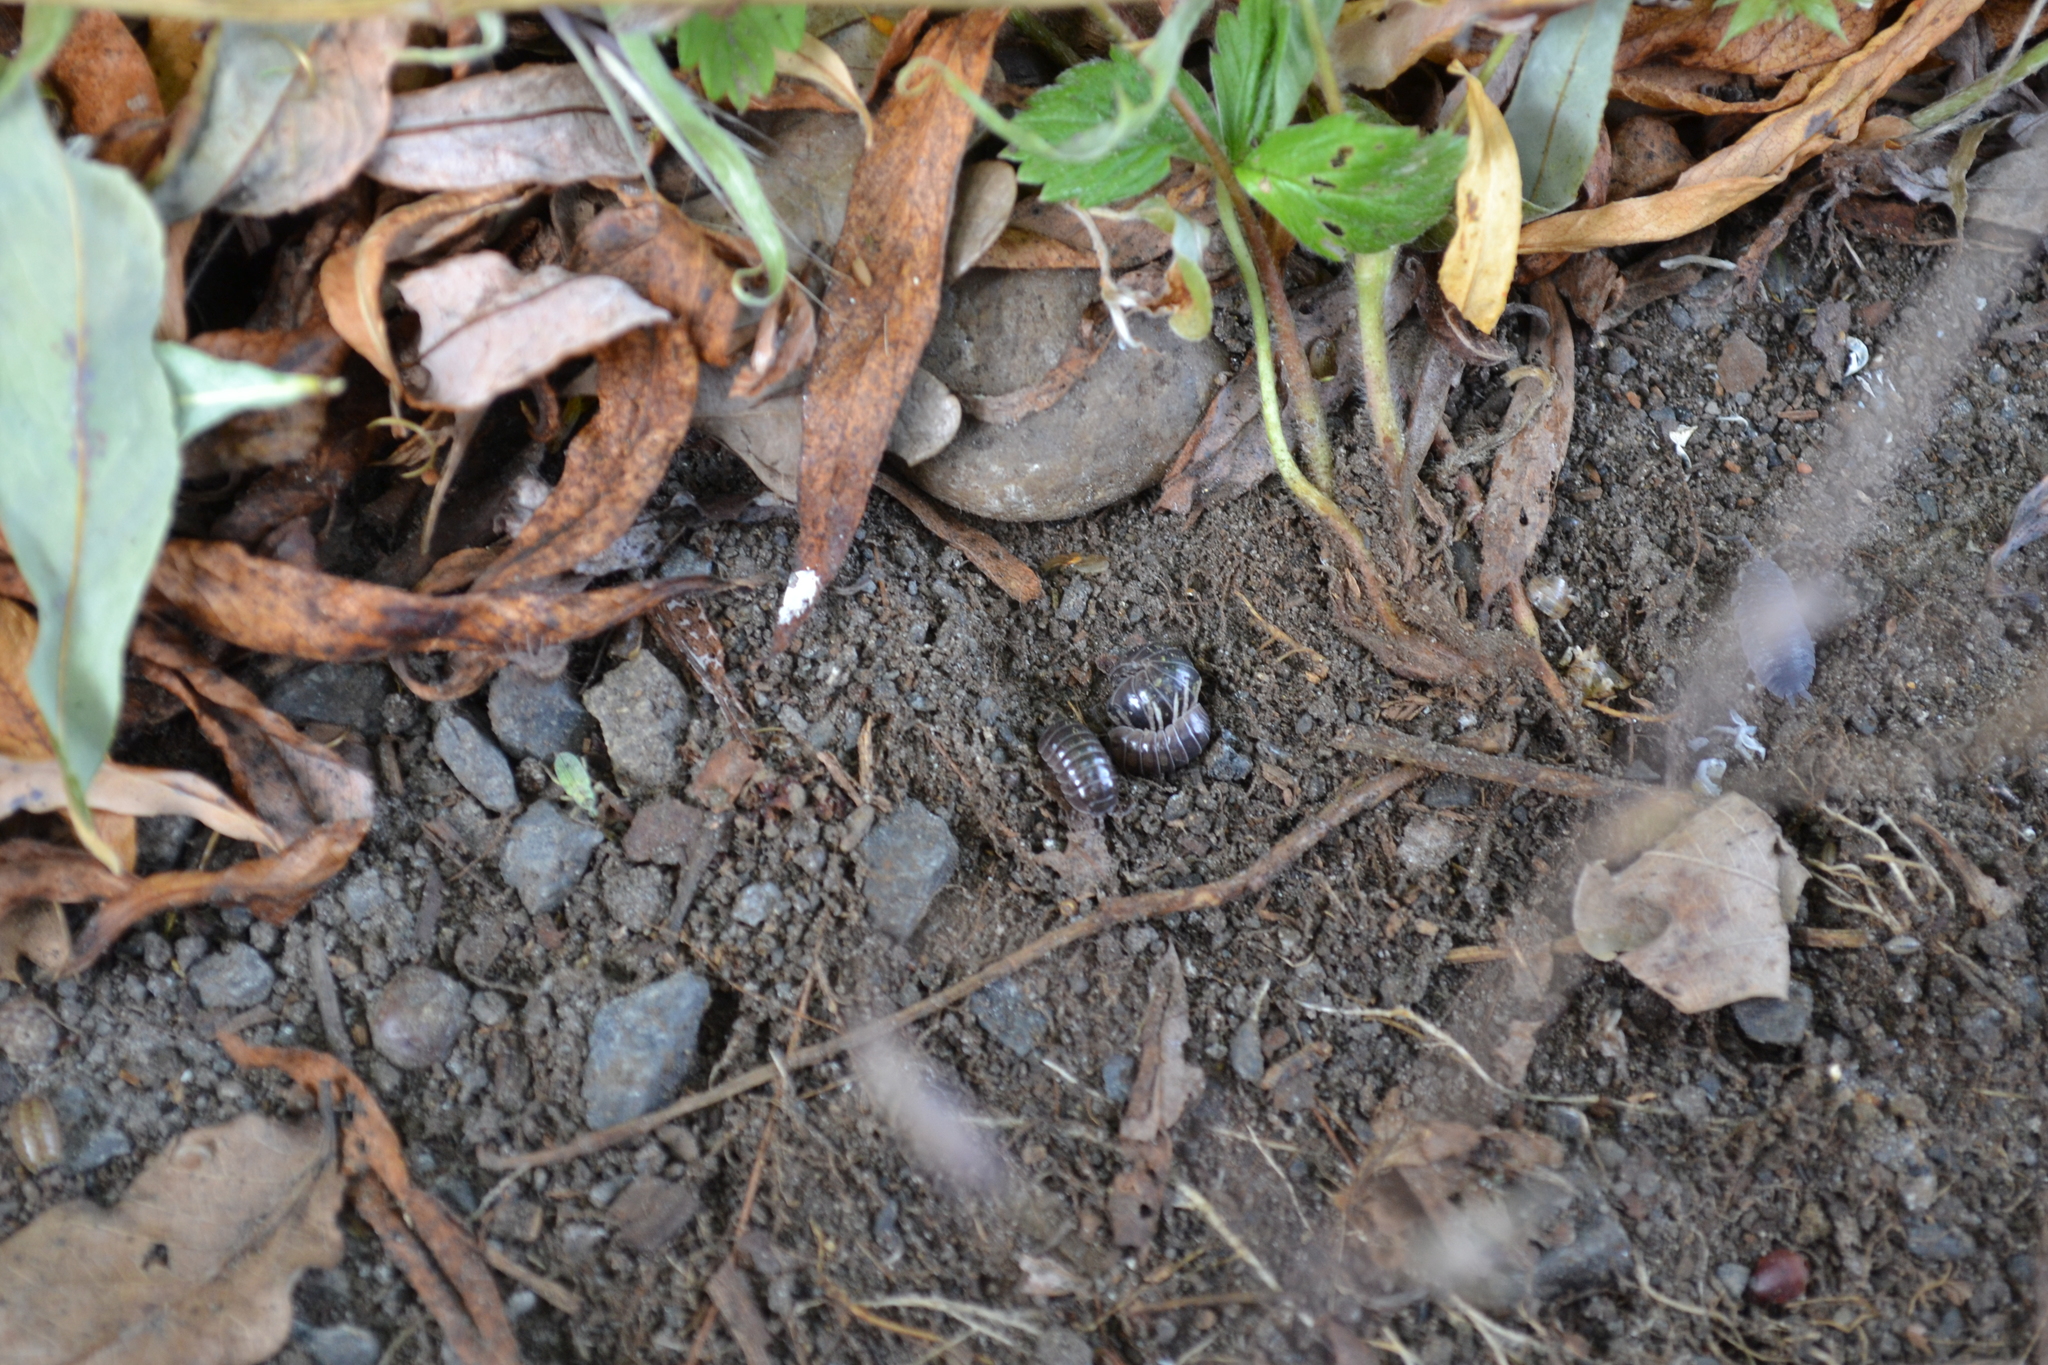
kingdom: Animalia
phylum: Arthropoda
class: Malacostraca
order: Isopoda
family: Armadillidiidae
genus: Armadillidium
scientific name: Armadillidium vulgare
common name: Common pill woodlouse
